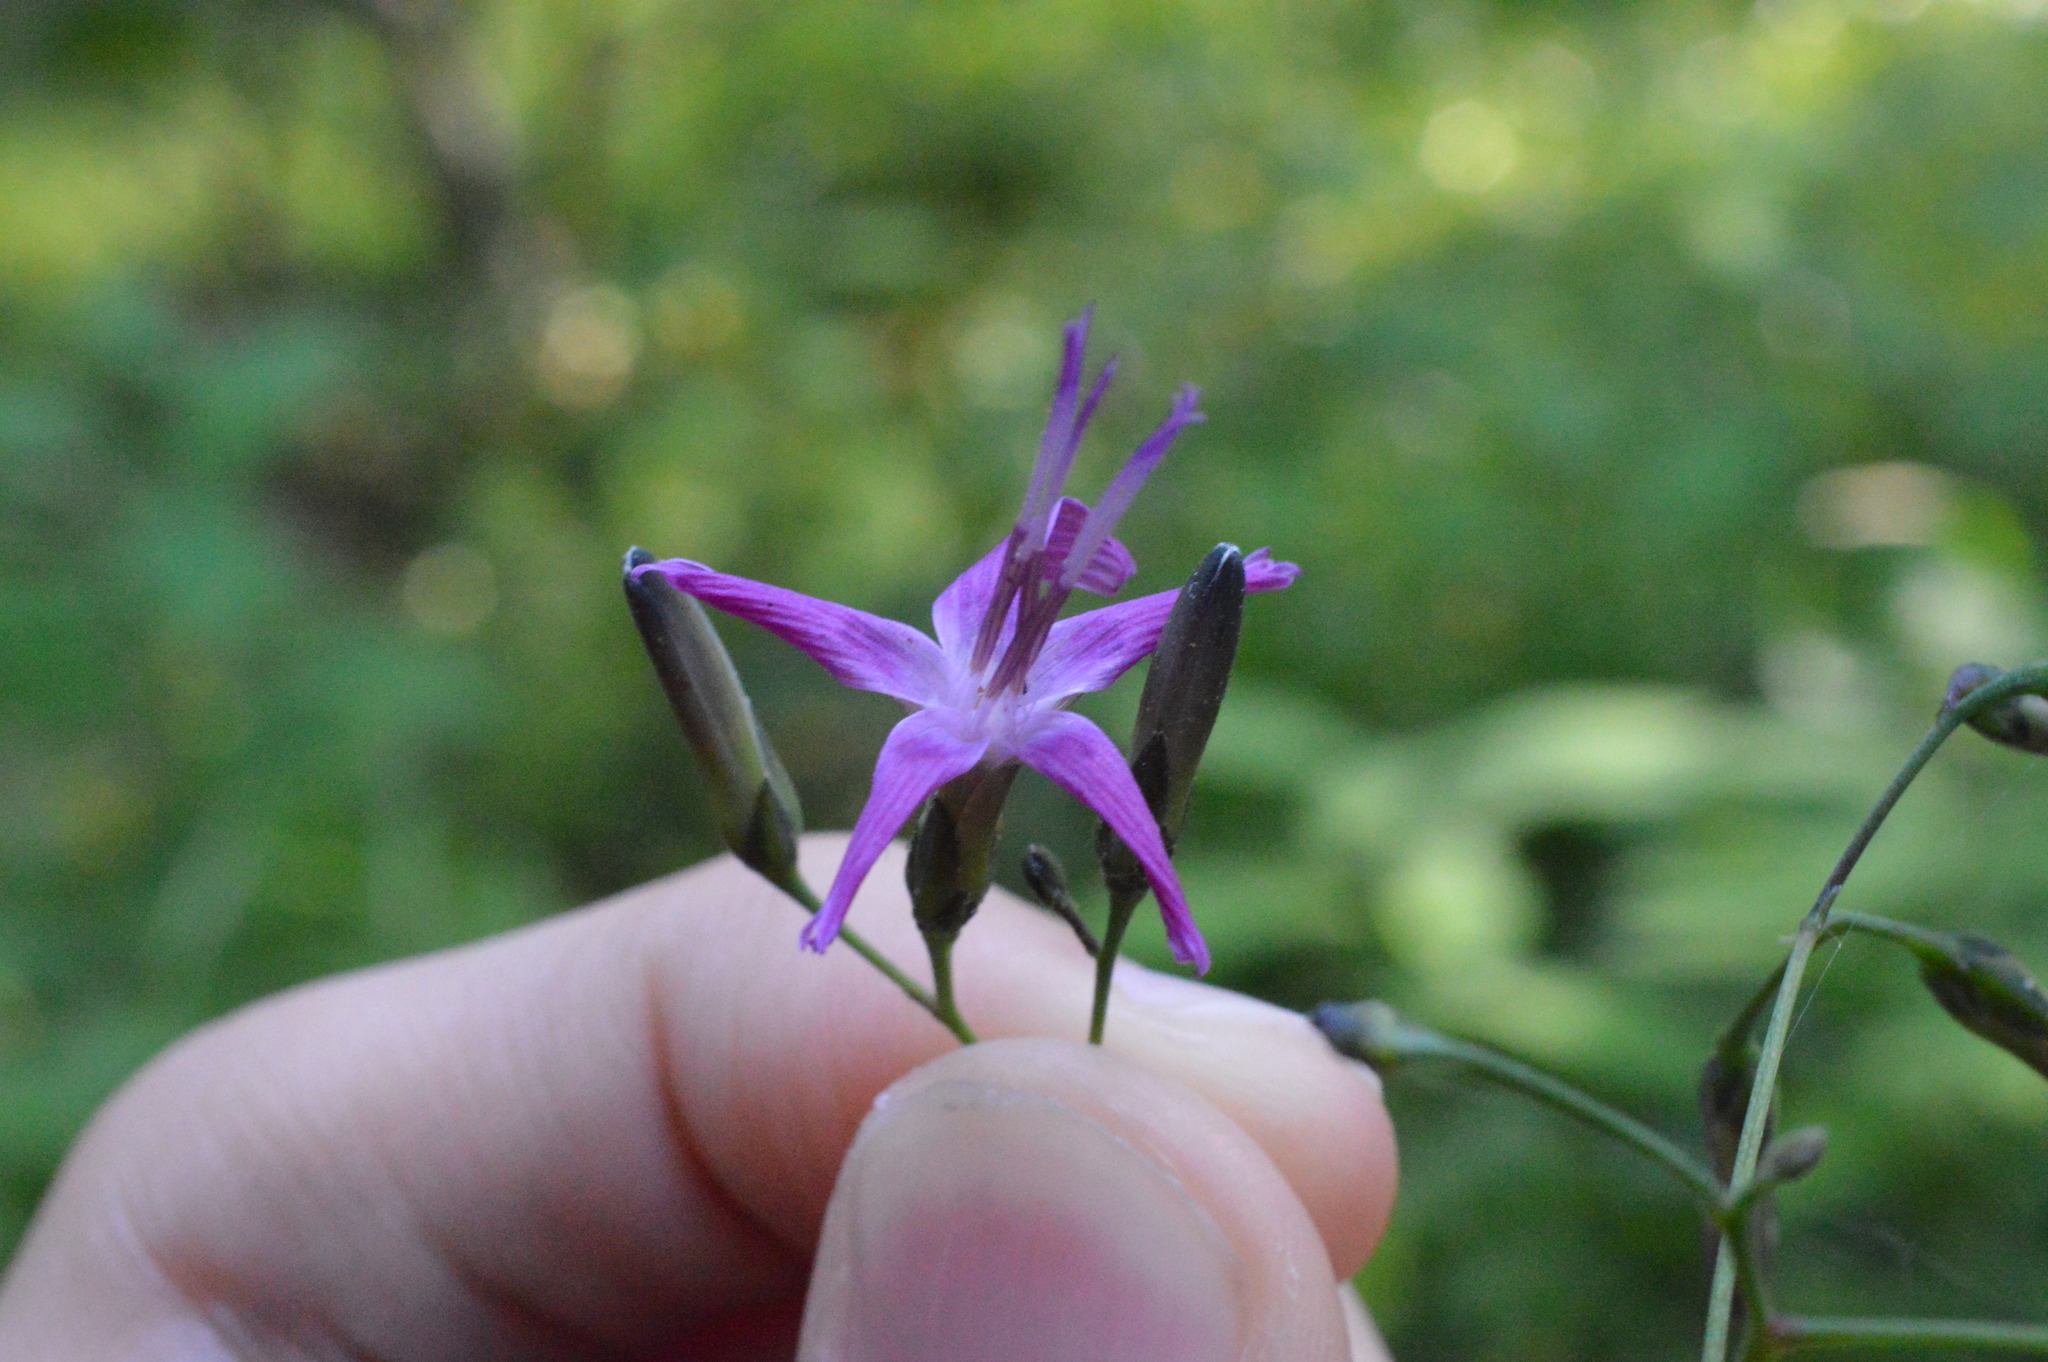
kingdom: Plantae
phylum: Tracheophyta
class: Magnoliopsida
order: Asterales
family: Asteraceae
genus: Prenanthes
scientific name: Prenanthes purpurea
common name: Purple lettuce
